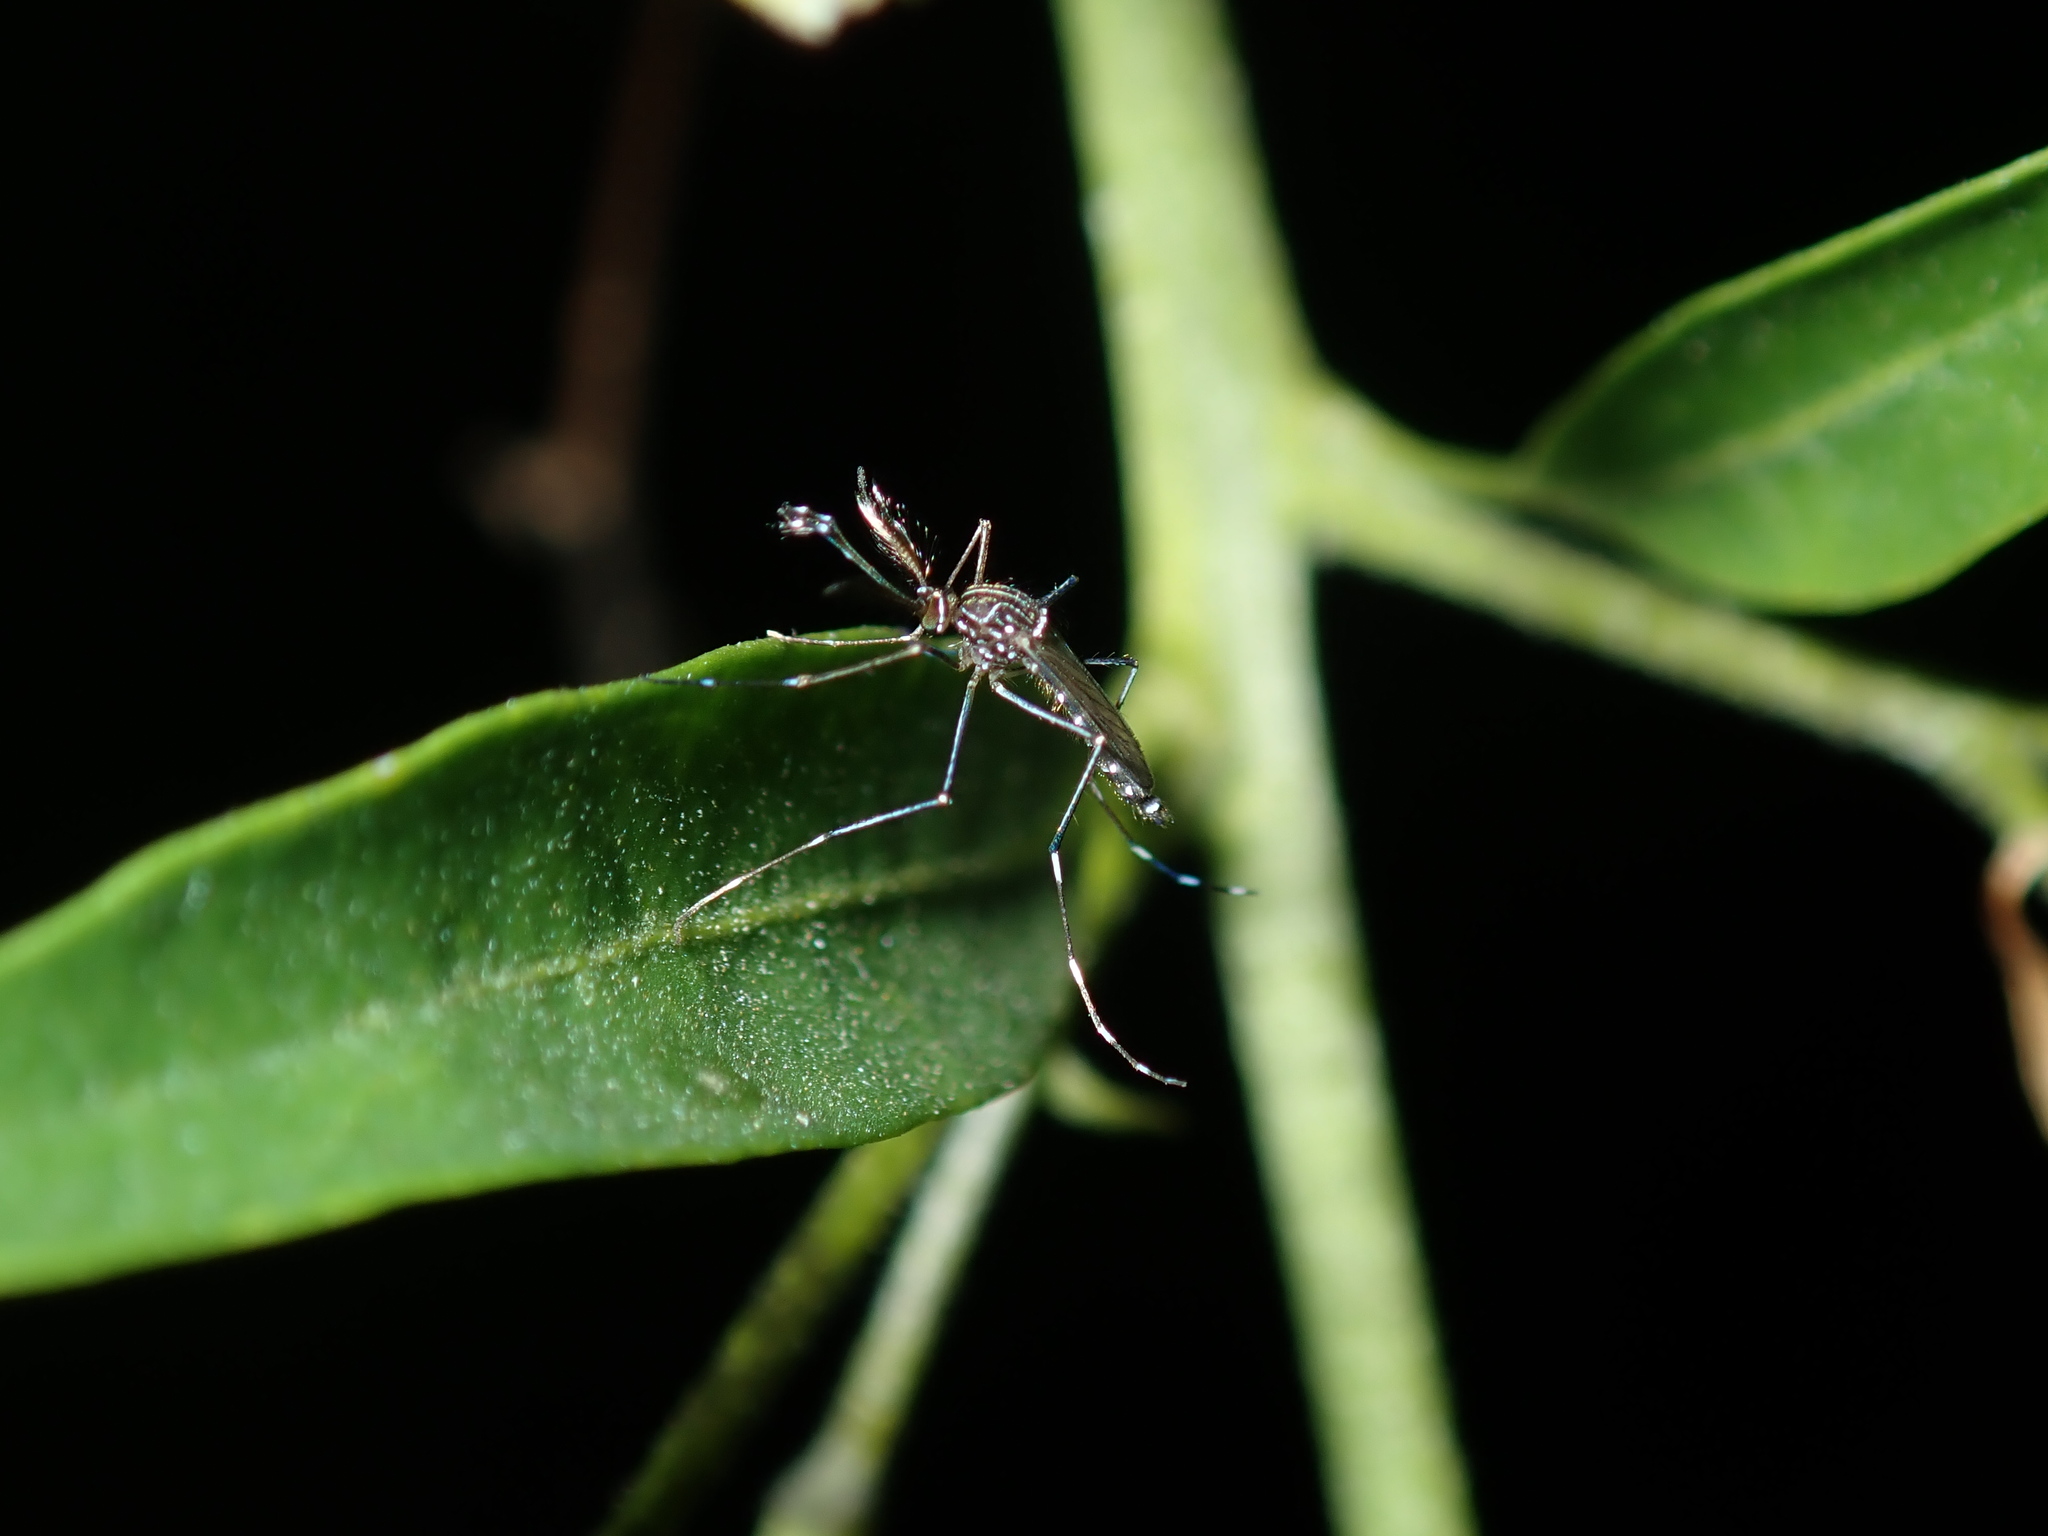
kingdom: Animalia
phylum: Arthropoda
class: Insecta
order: Diptera
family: Culicidae
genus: Aedes
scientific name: Aedes notoscriptus
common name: Australian backyard mosquito
